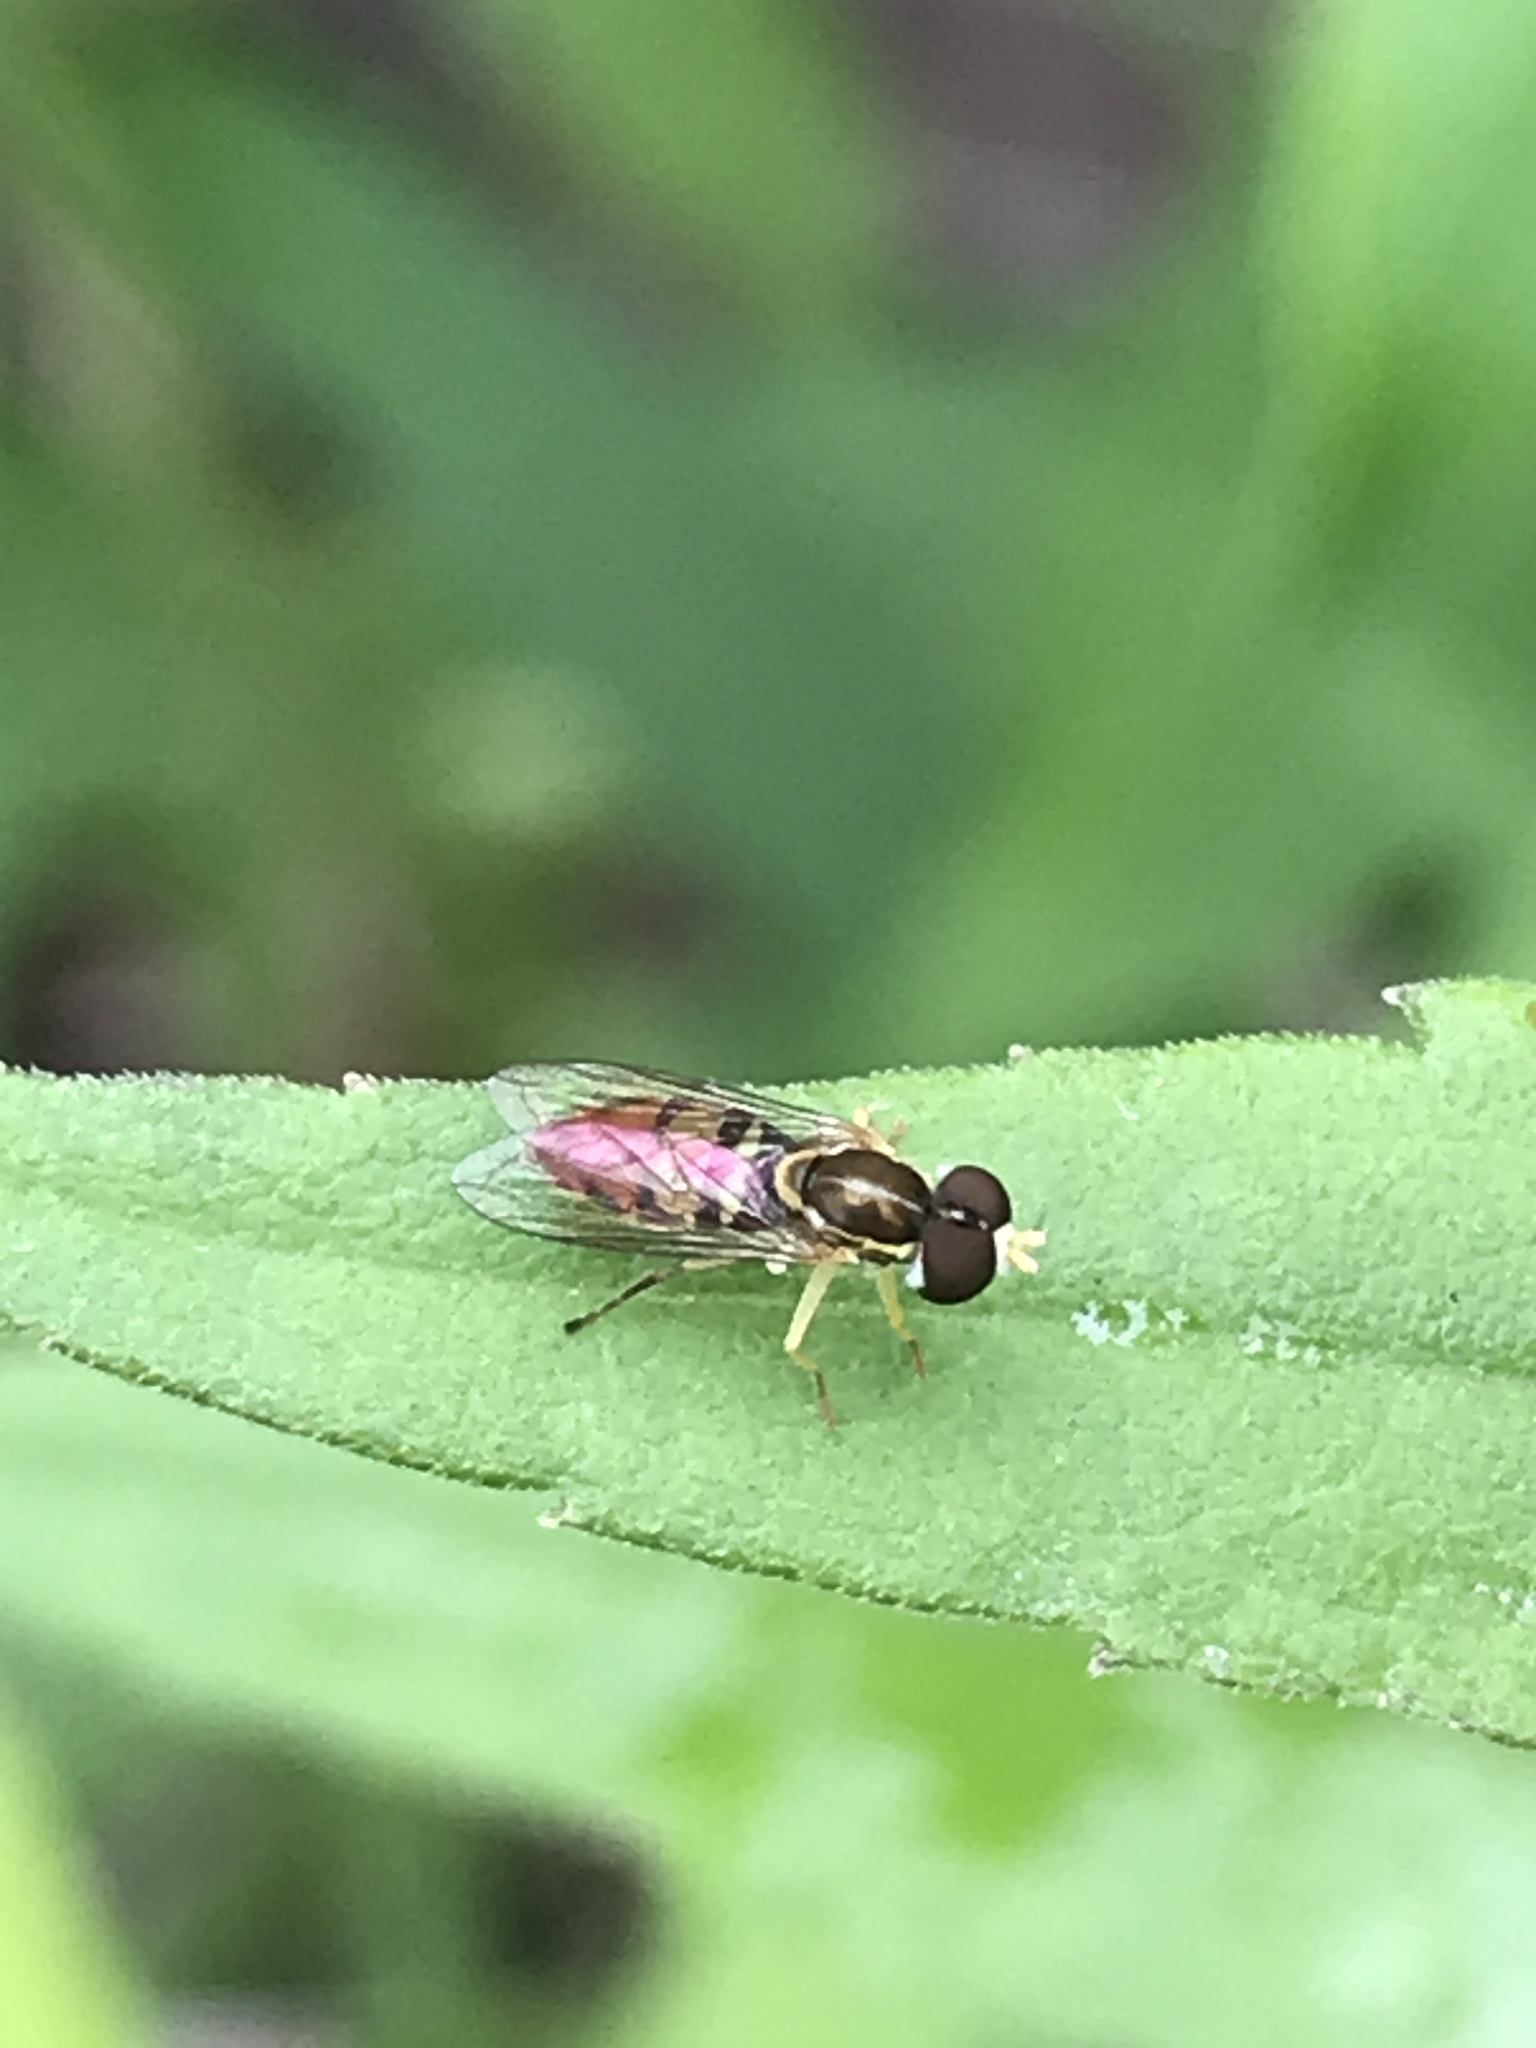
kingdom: Animalia
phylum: Arthropoda
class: Insecta
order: Diptera
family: Syrphidae
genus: Toxomerus
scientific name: Toxomerus marginatus
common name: Syrphid fly
